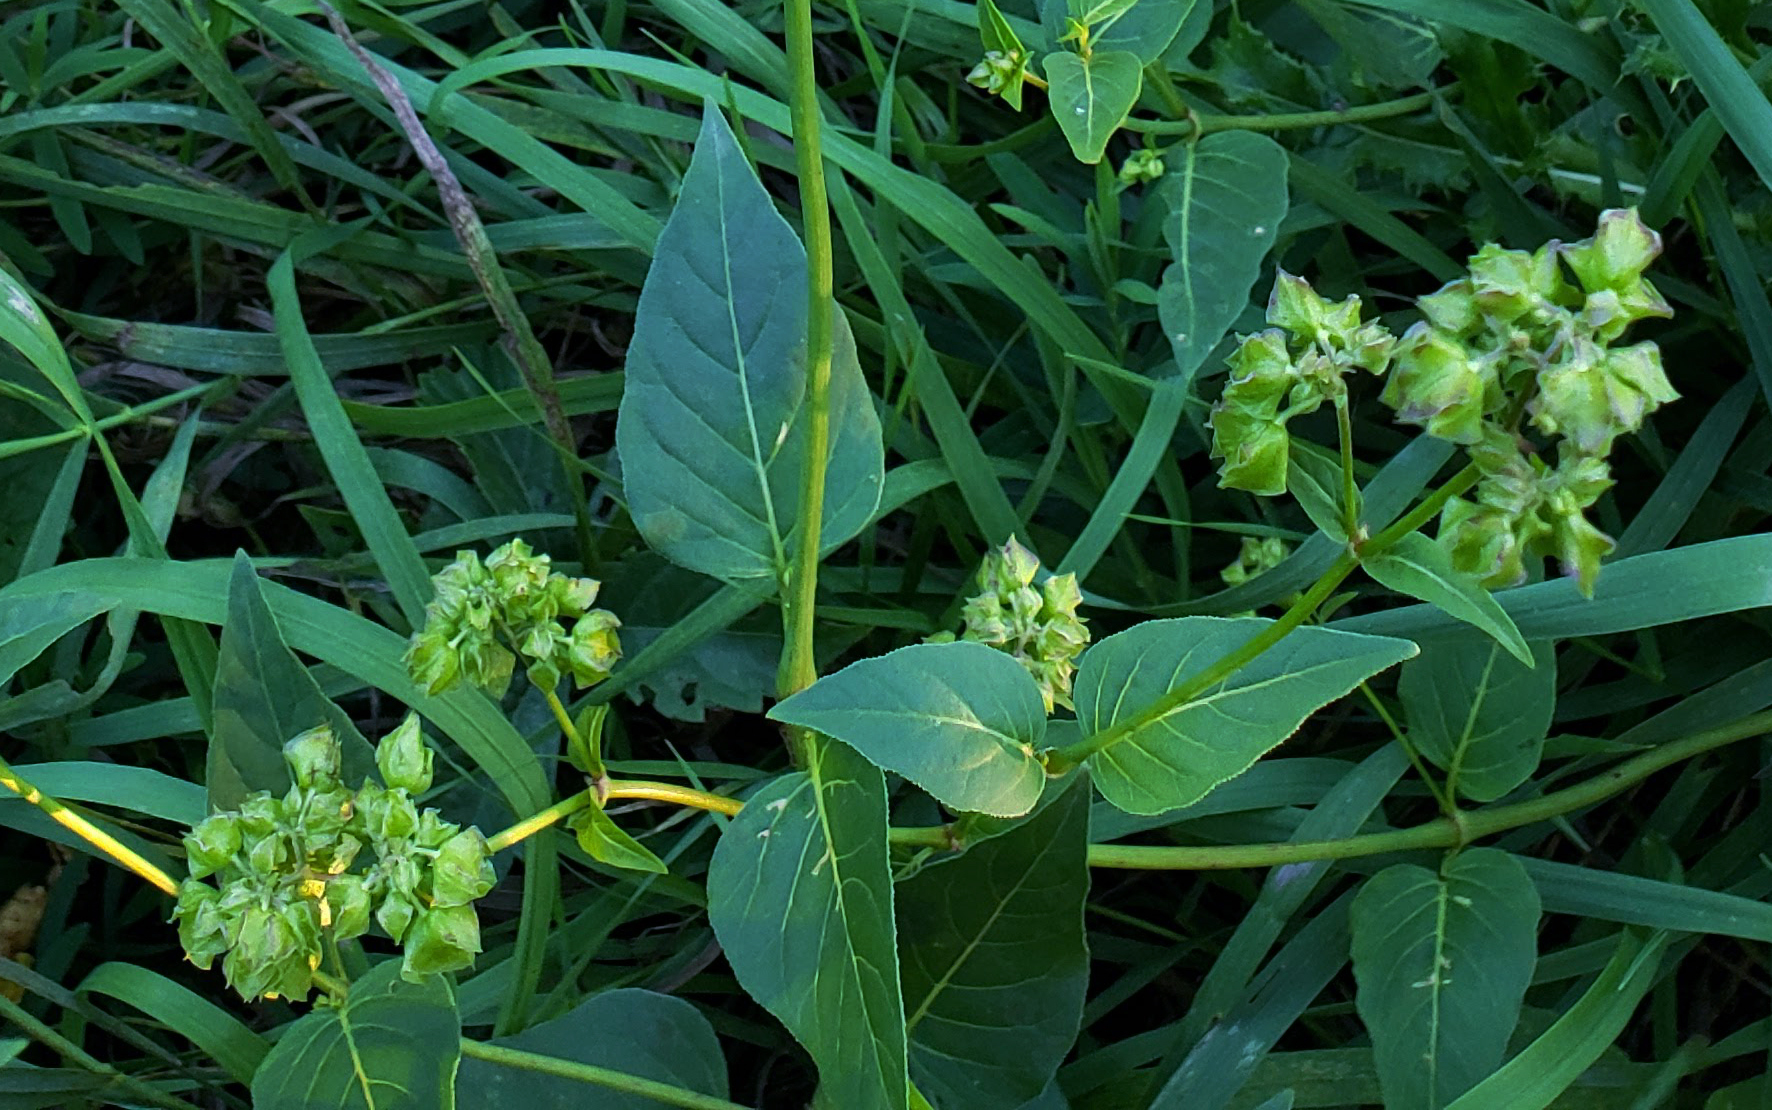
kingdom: Plantae
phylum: Tracheophyta
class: Magnoliopsida
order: Caryophyllales
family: Nyctaginaceae
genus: Mirabilis
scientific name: Mirabilis nyctaginea
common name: Umbrella wort
